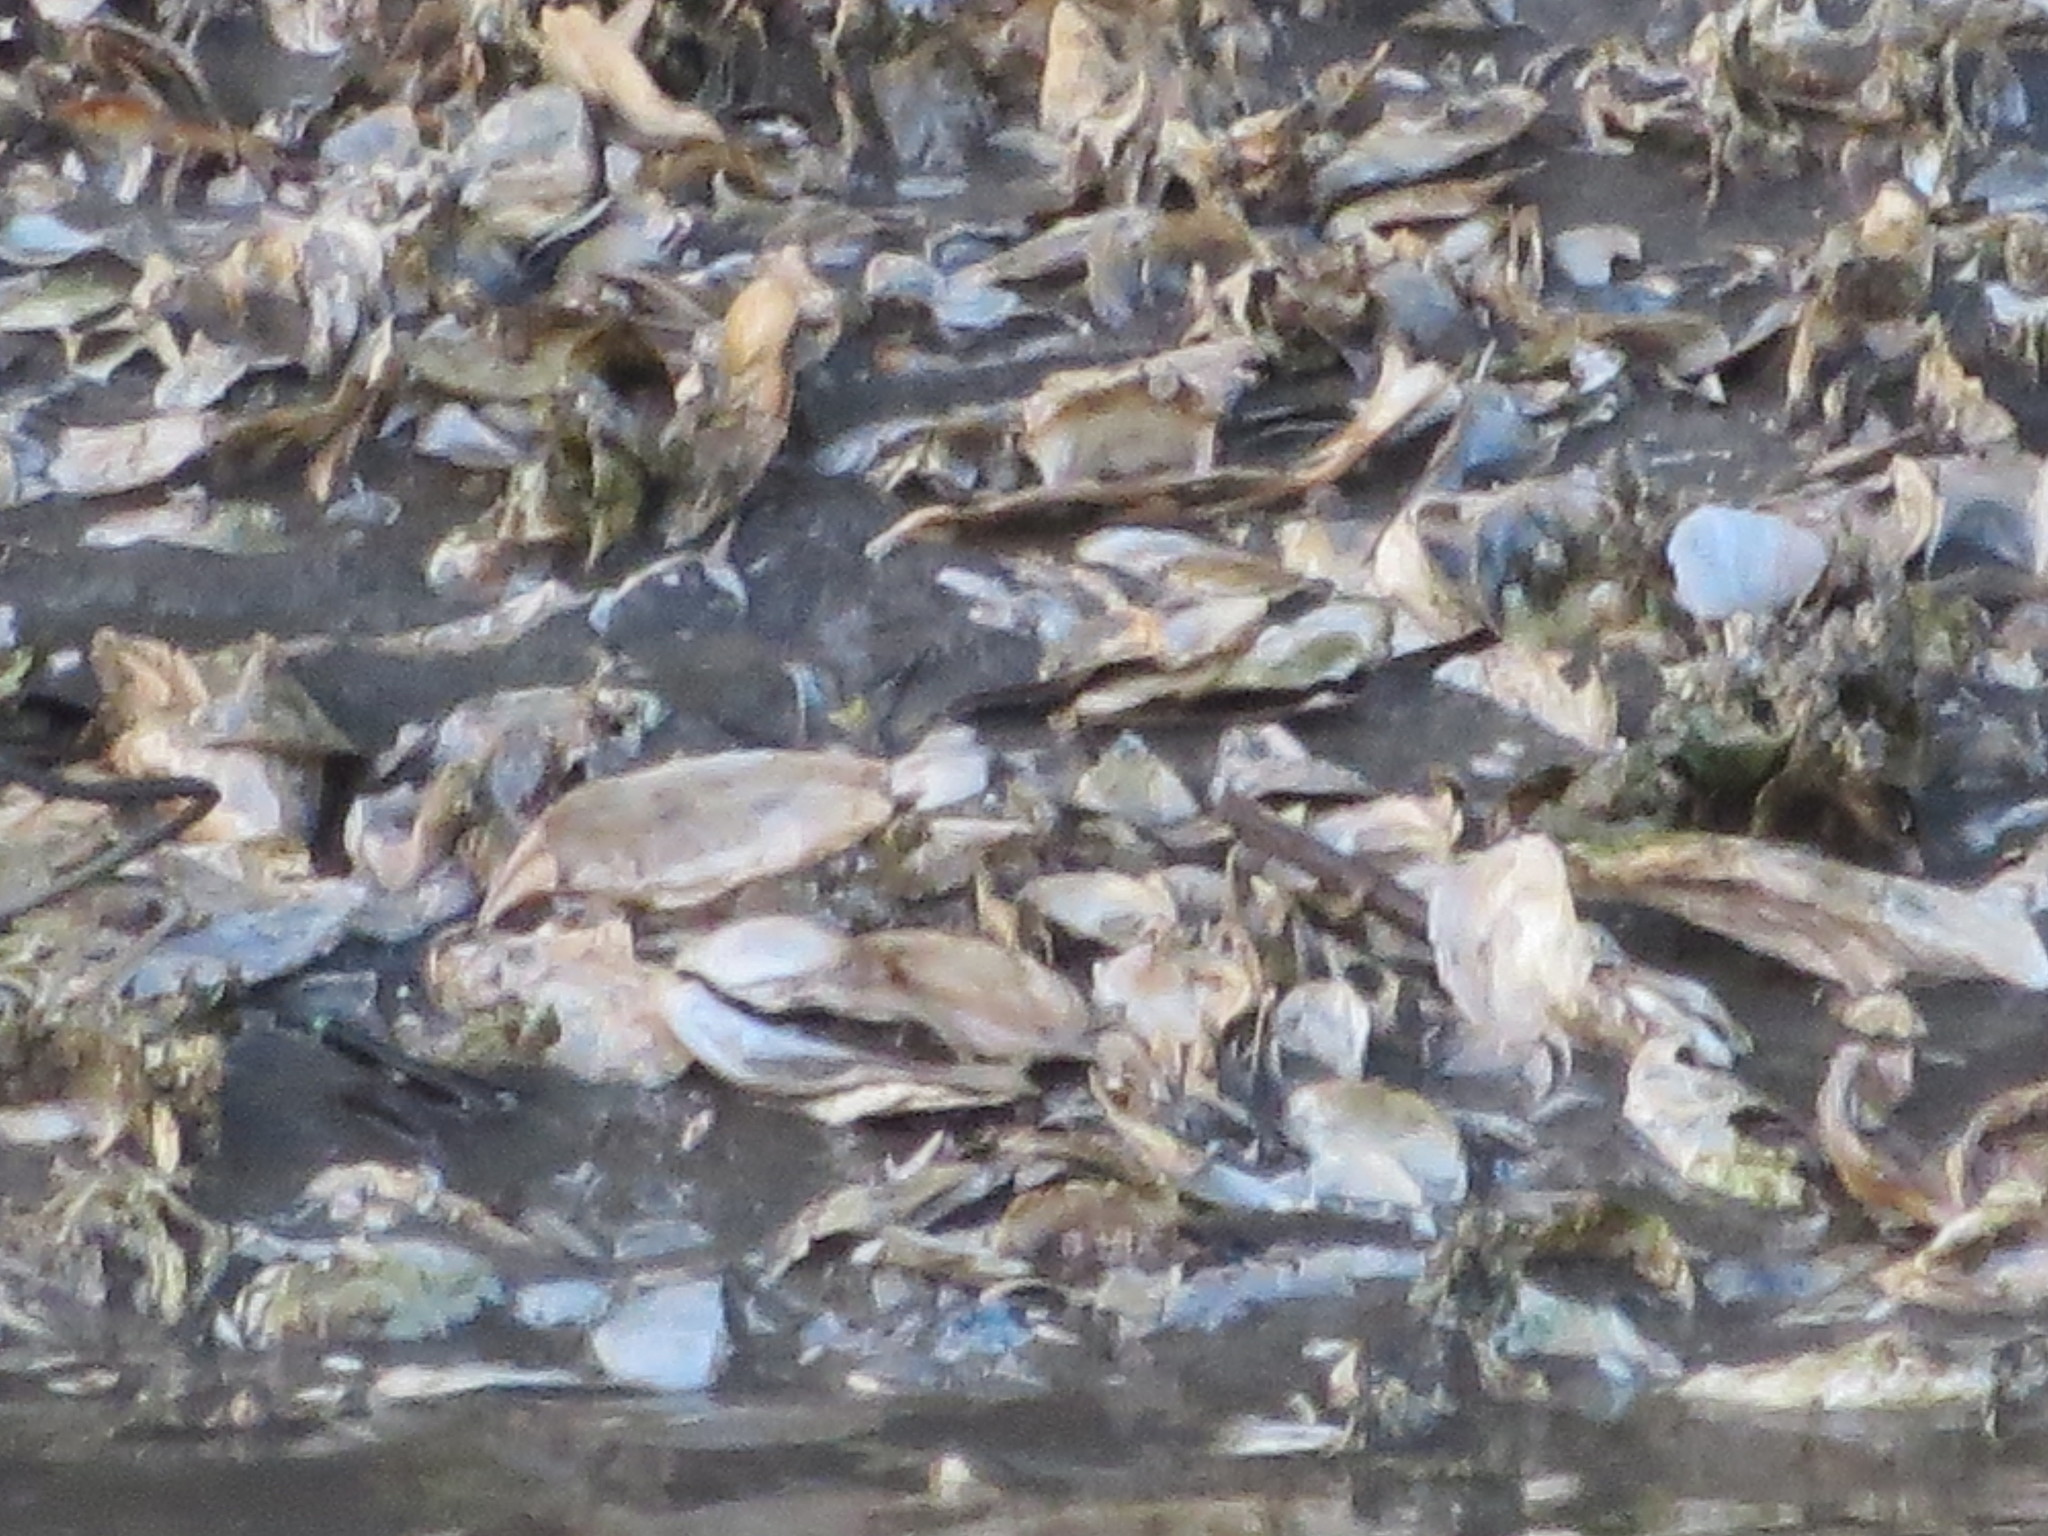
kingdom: Animalia
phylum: Mollusca
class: Bivalvia
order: Ostreida
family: Ostreidae
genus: Crassostrea
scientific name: Crassostrea virginica
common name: American oyster
